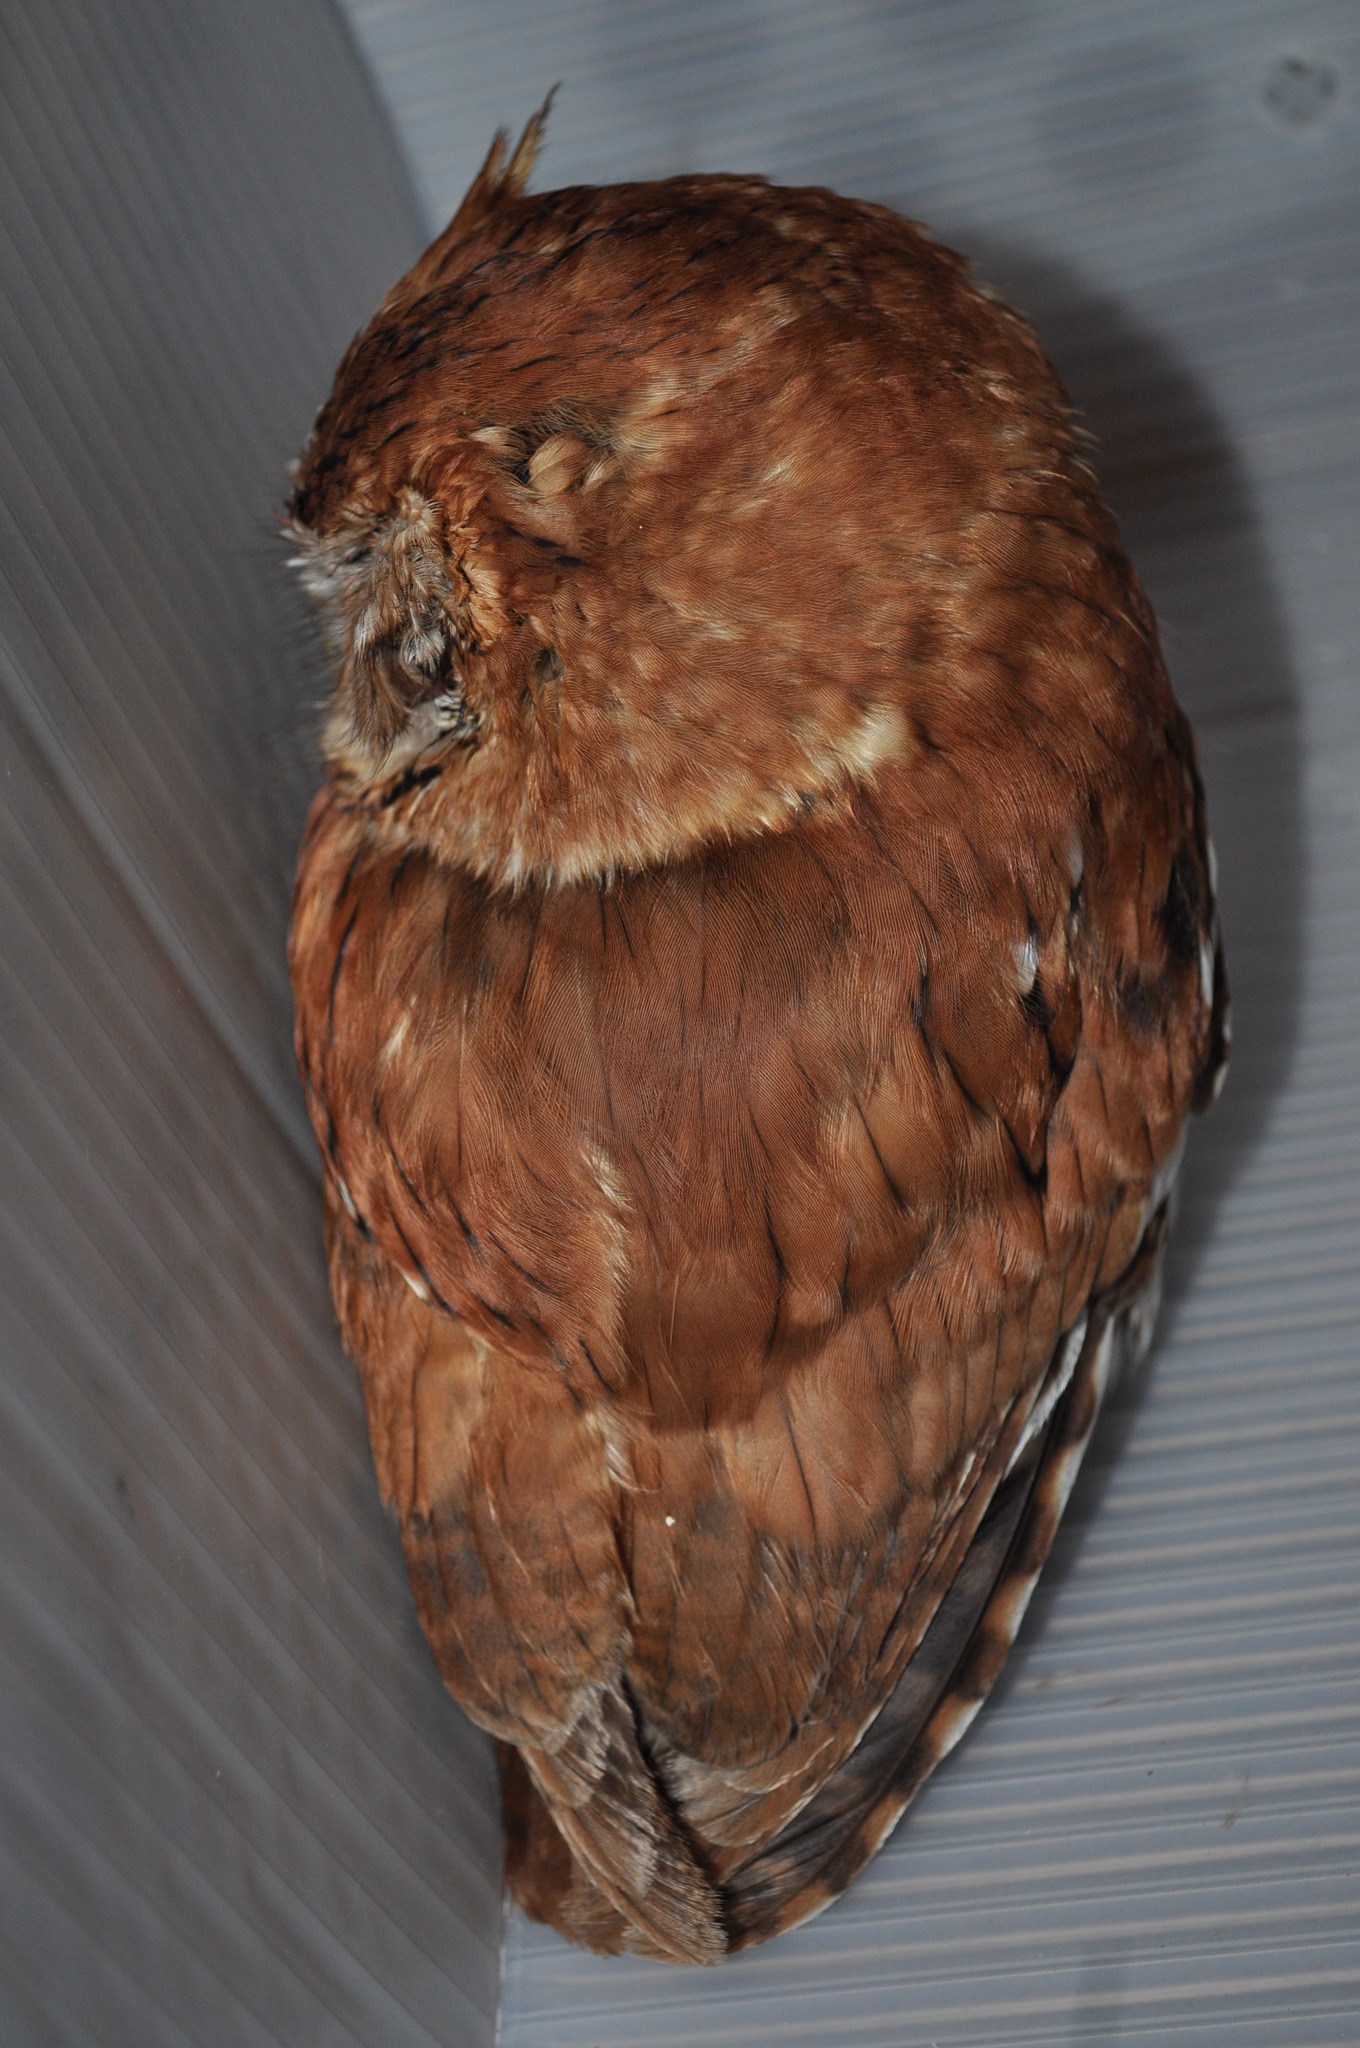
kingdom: Animalia
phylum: Chordata
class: Aves
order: Strigiformes
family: Strigidae
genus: Megascops
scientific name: Megascops asio
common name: Eastern screech-owl
